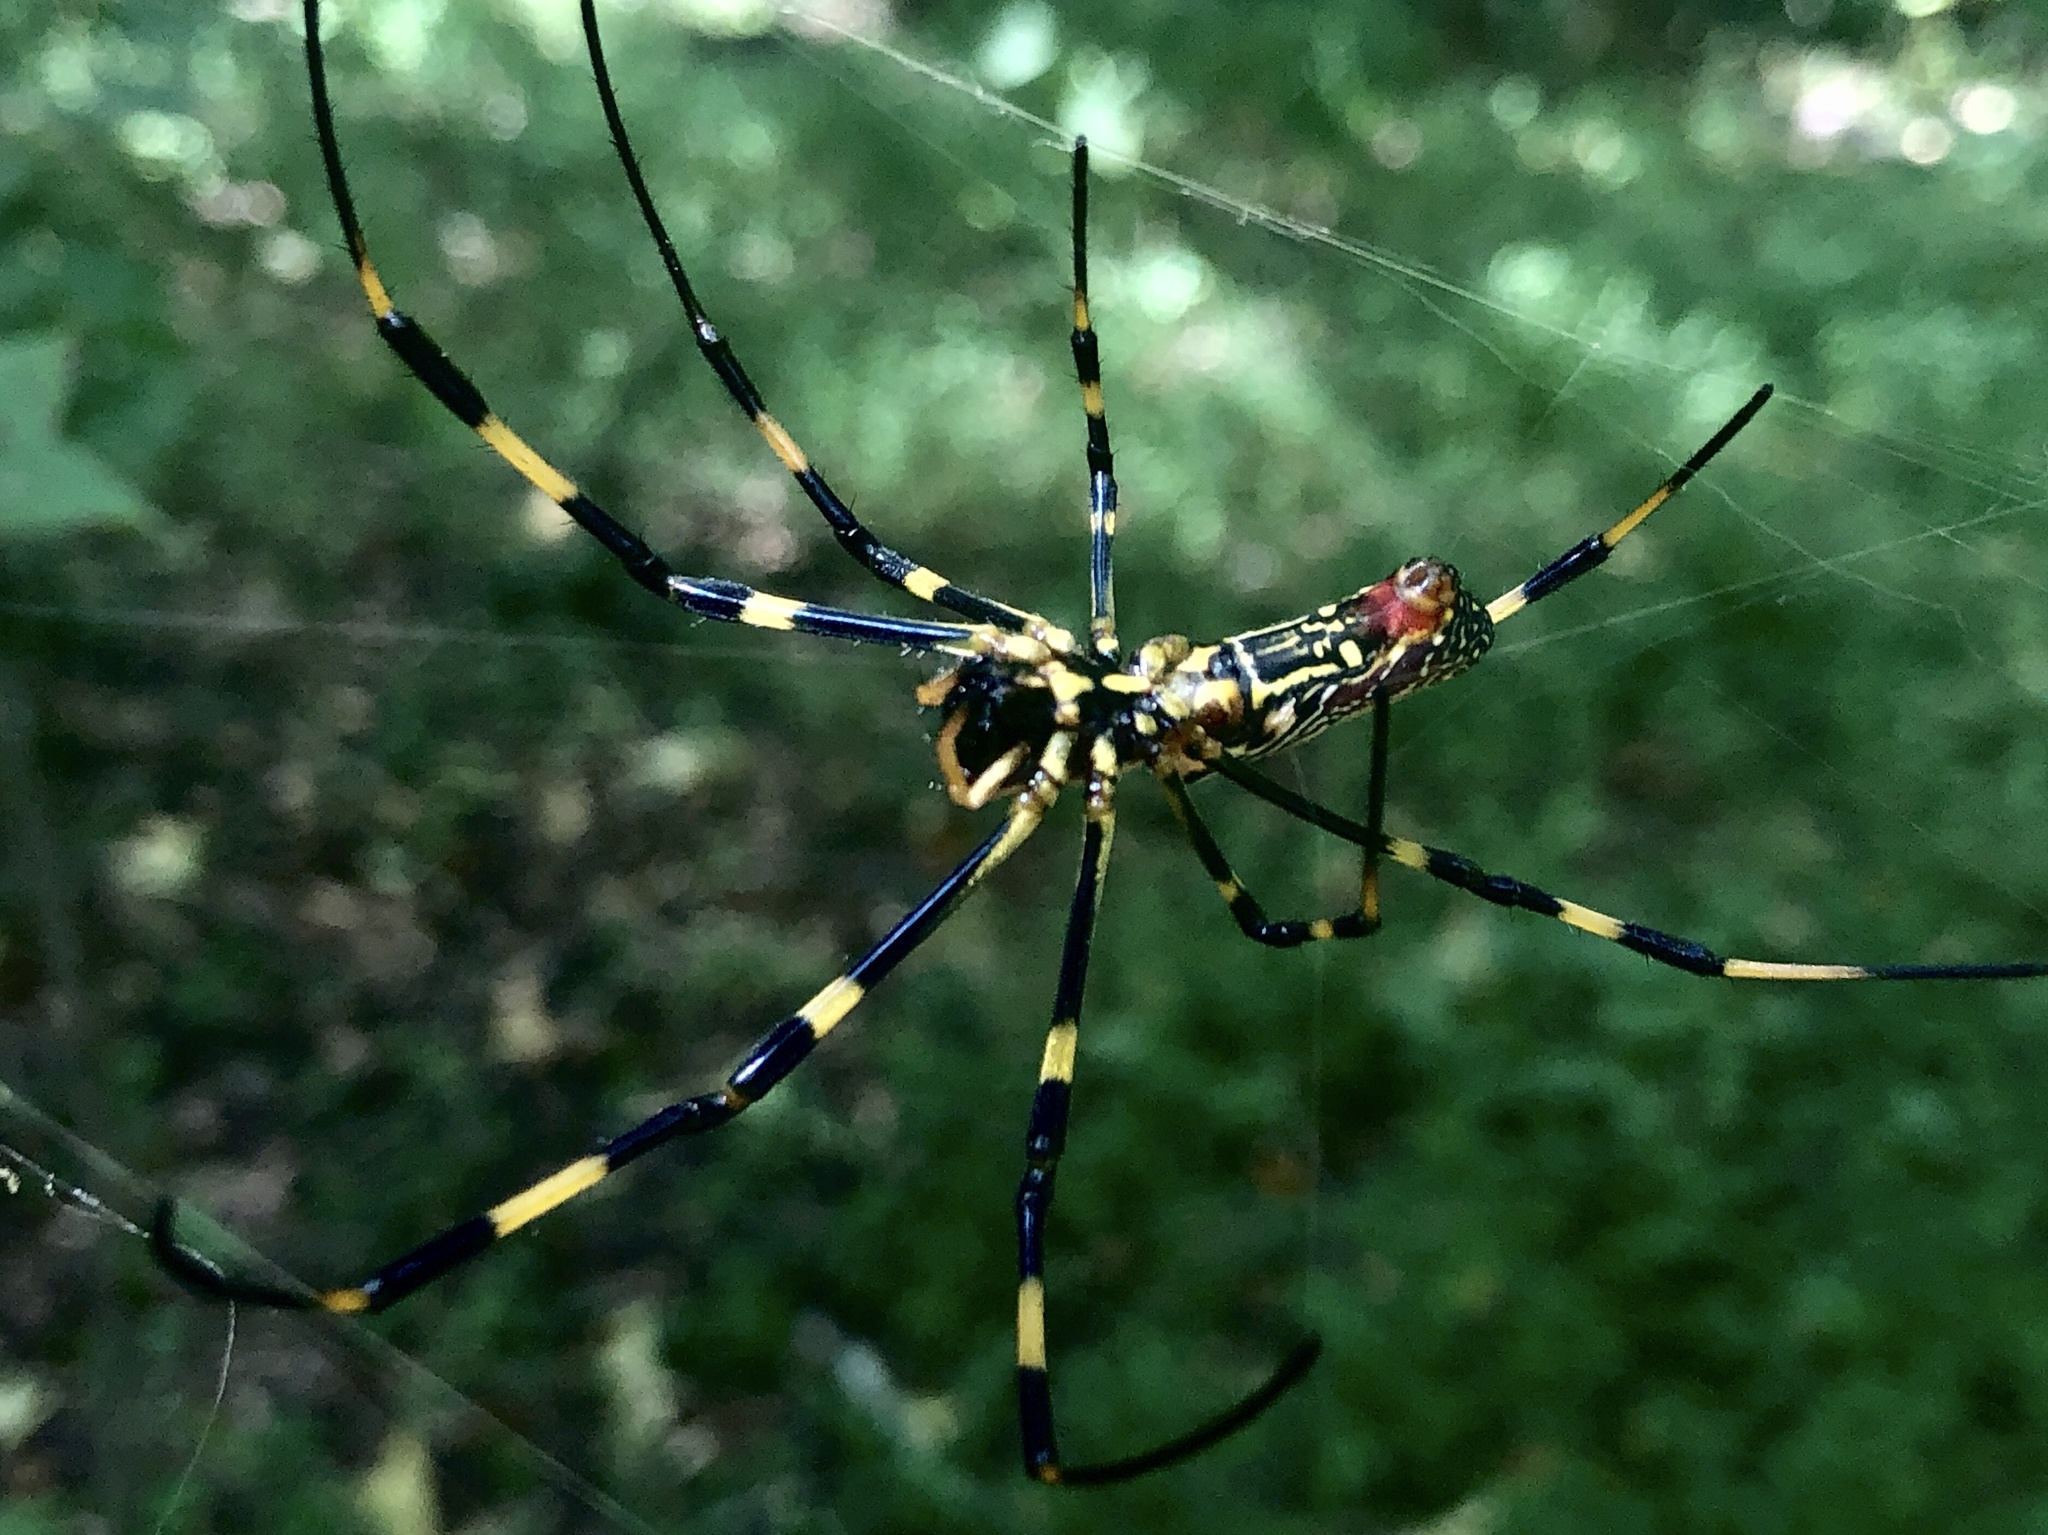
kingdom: Animalia
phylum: Arthropoda
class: Arachnida
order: Araneae
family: Araneidae
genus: Trichonephila
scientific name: Trichonephila clavata
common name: Jorō spider
